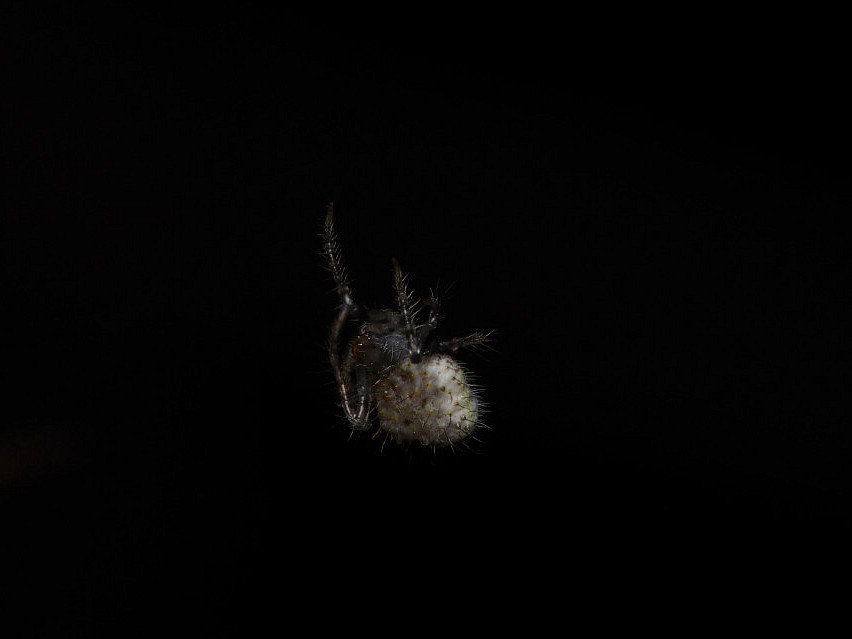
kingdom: Animalia
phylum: Arthropoda
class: Arachnida
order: Araneae
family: Araneidae
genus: Poecilopachys
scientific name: Poecilopachys australasia
